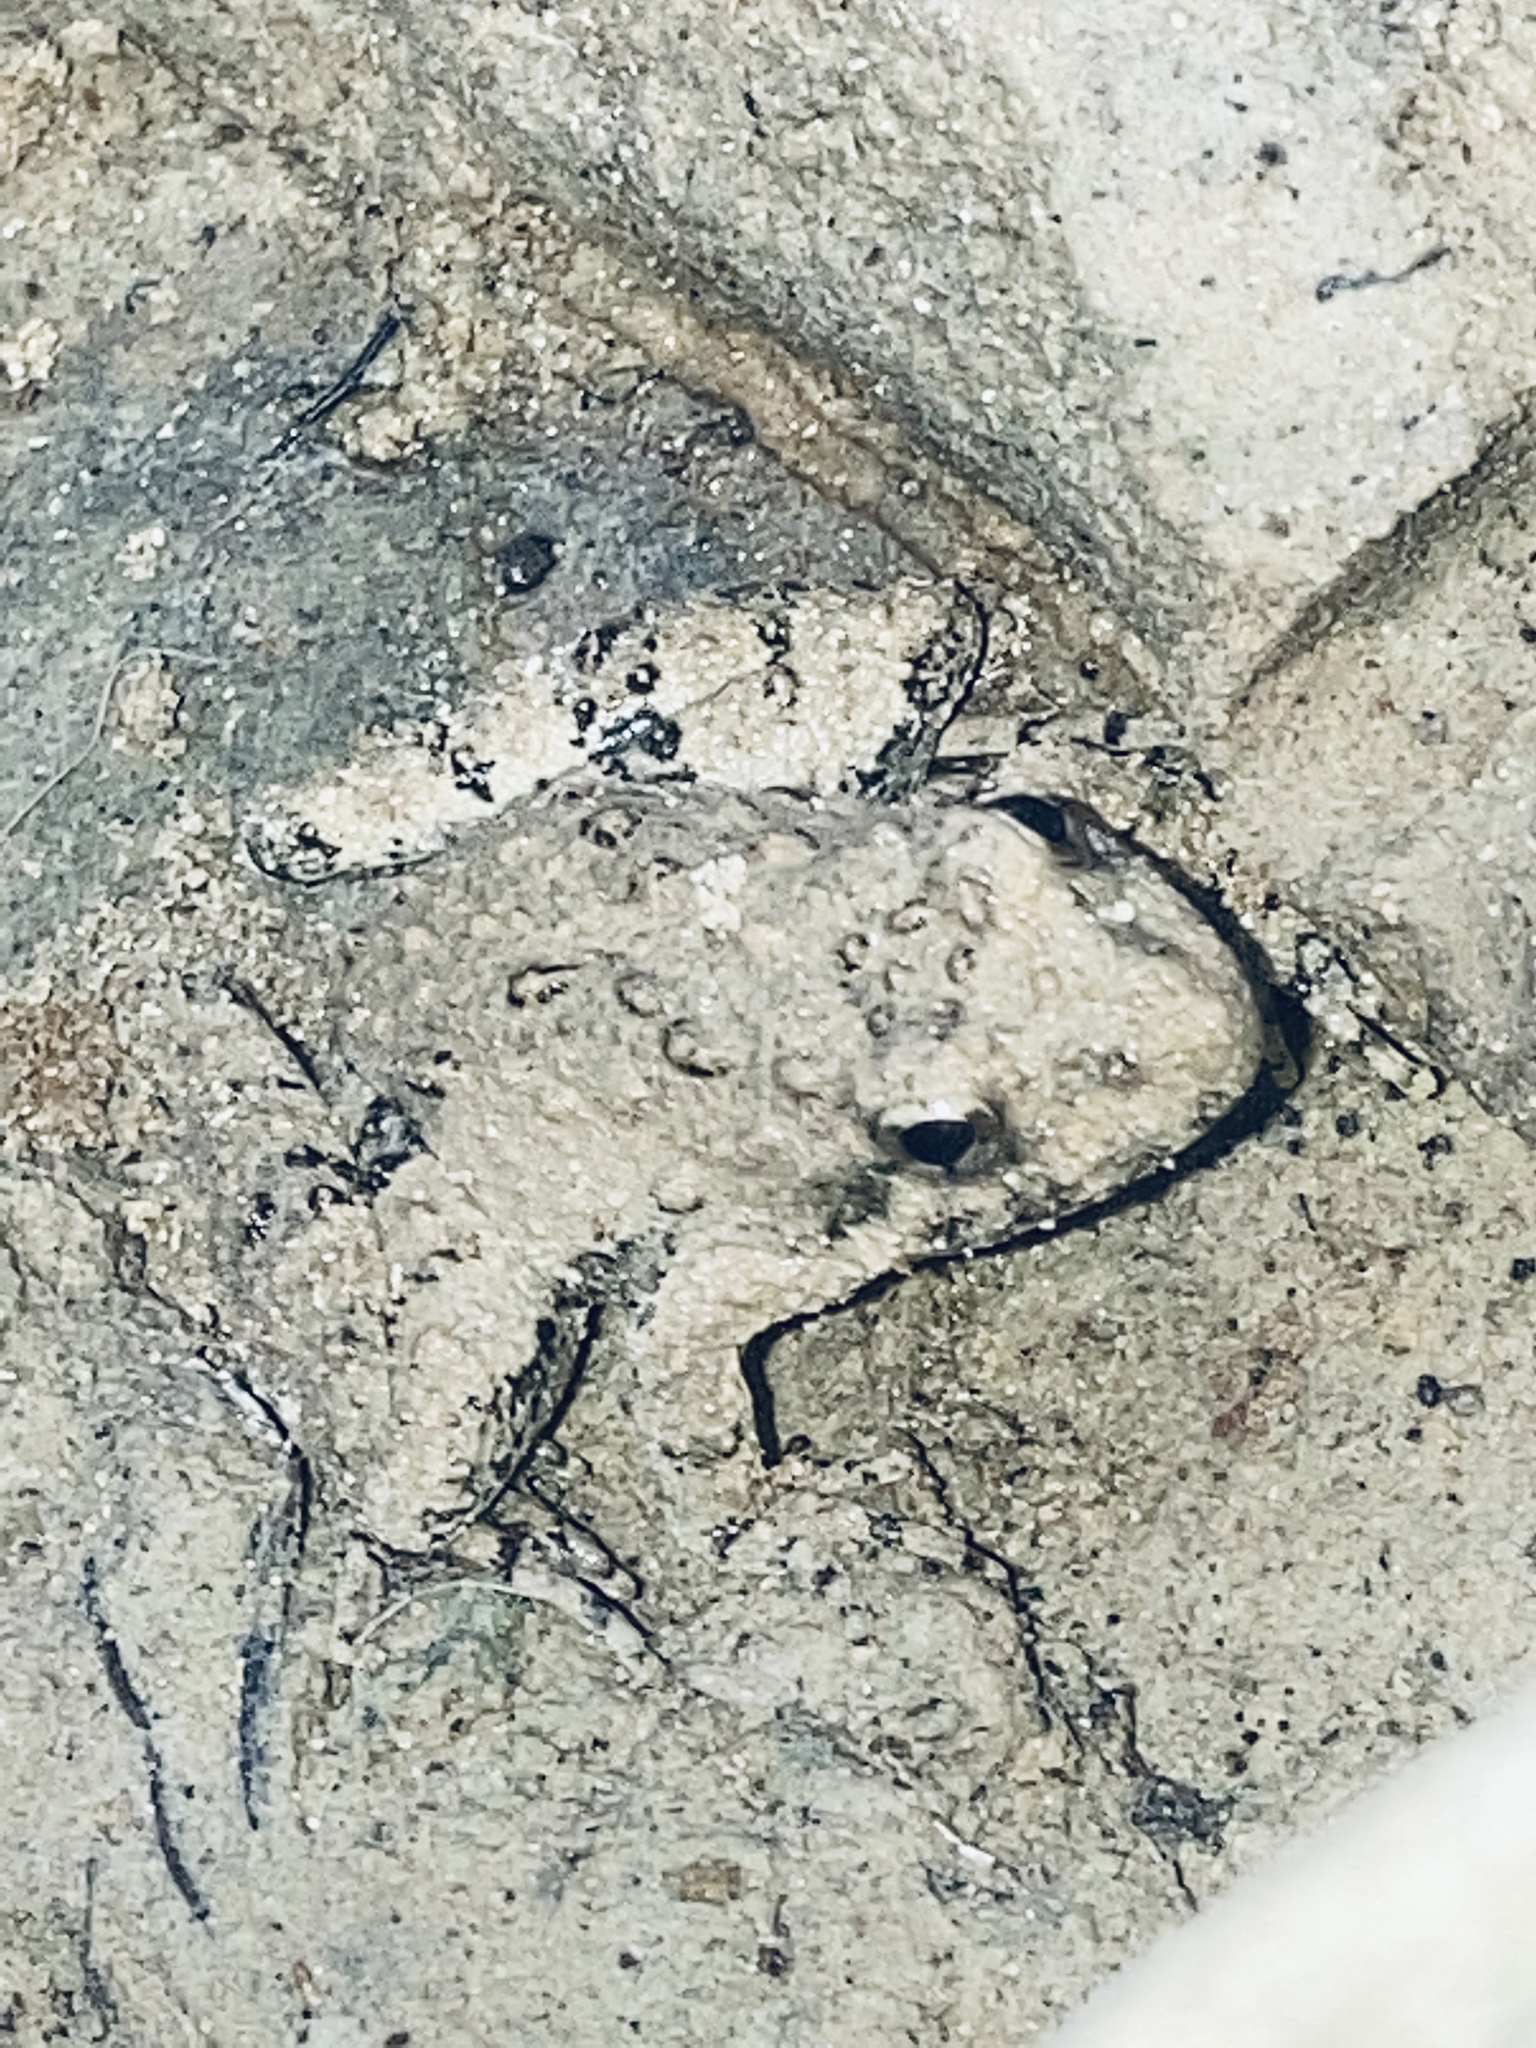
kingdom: Animalia
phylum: Chordata
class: Amphibia
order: Anura
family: Hylidae
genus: Acris
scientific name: Acris blanchardi
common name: Blanchard's cricket frog
